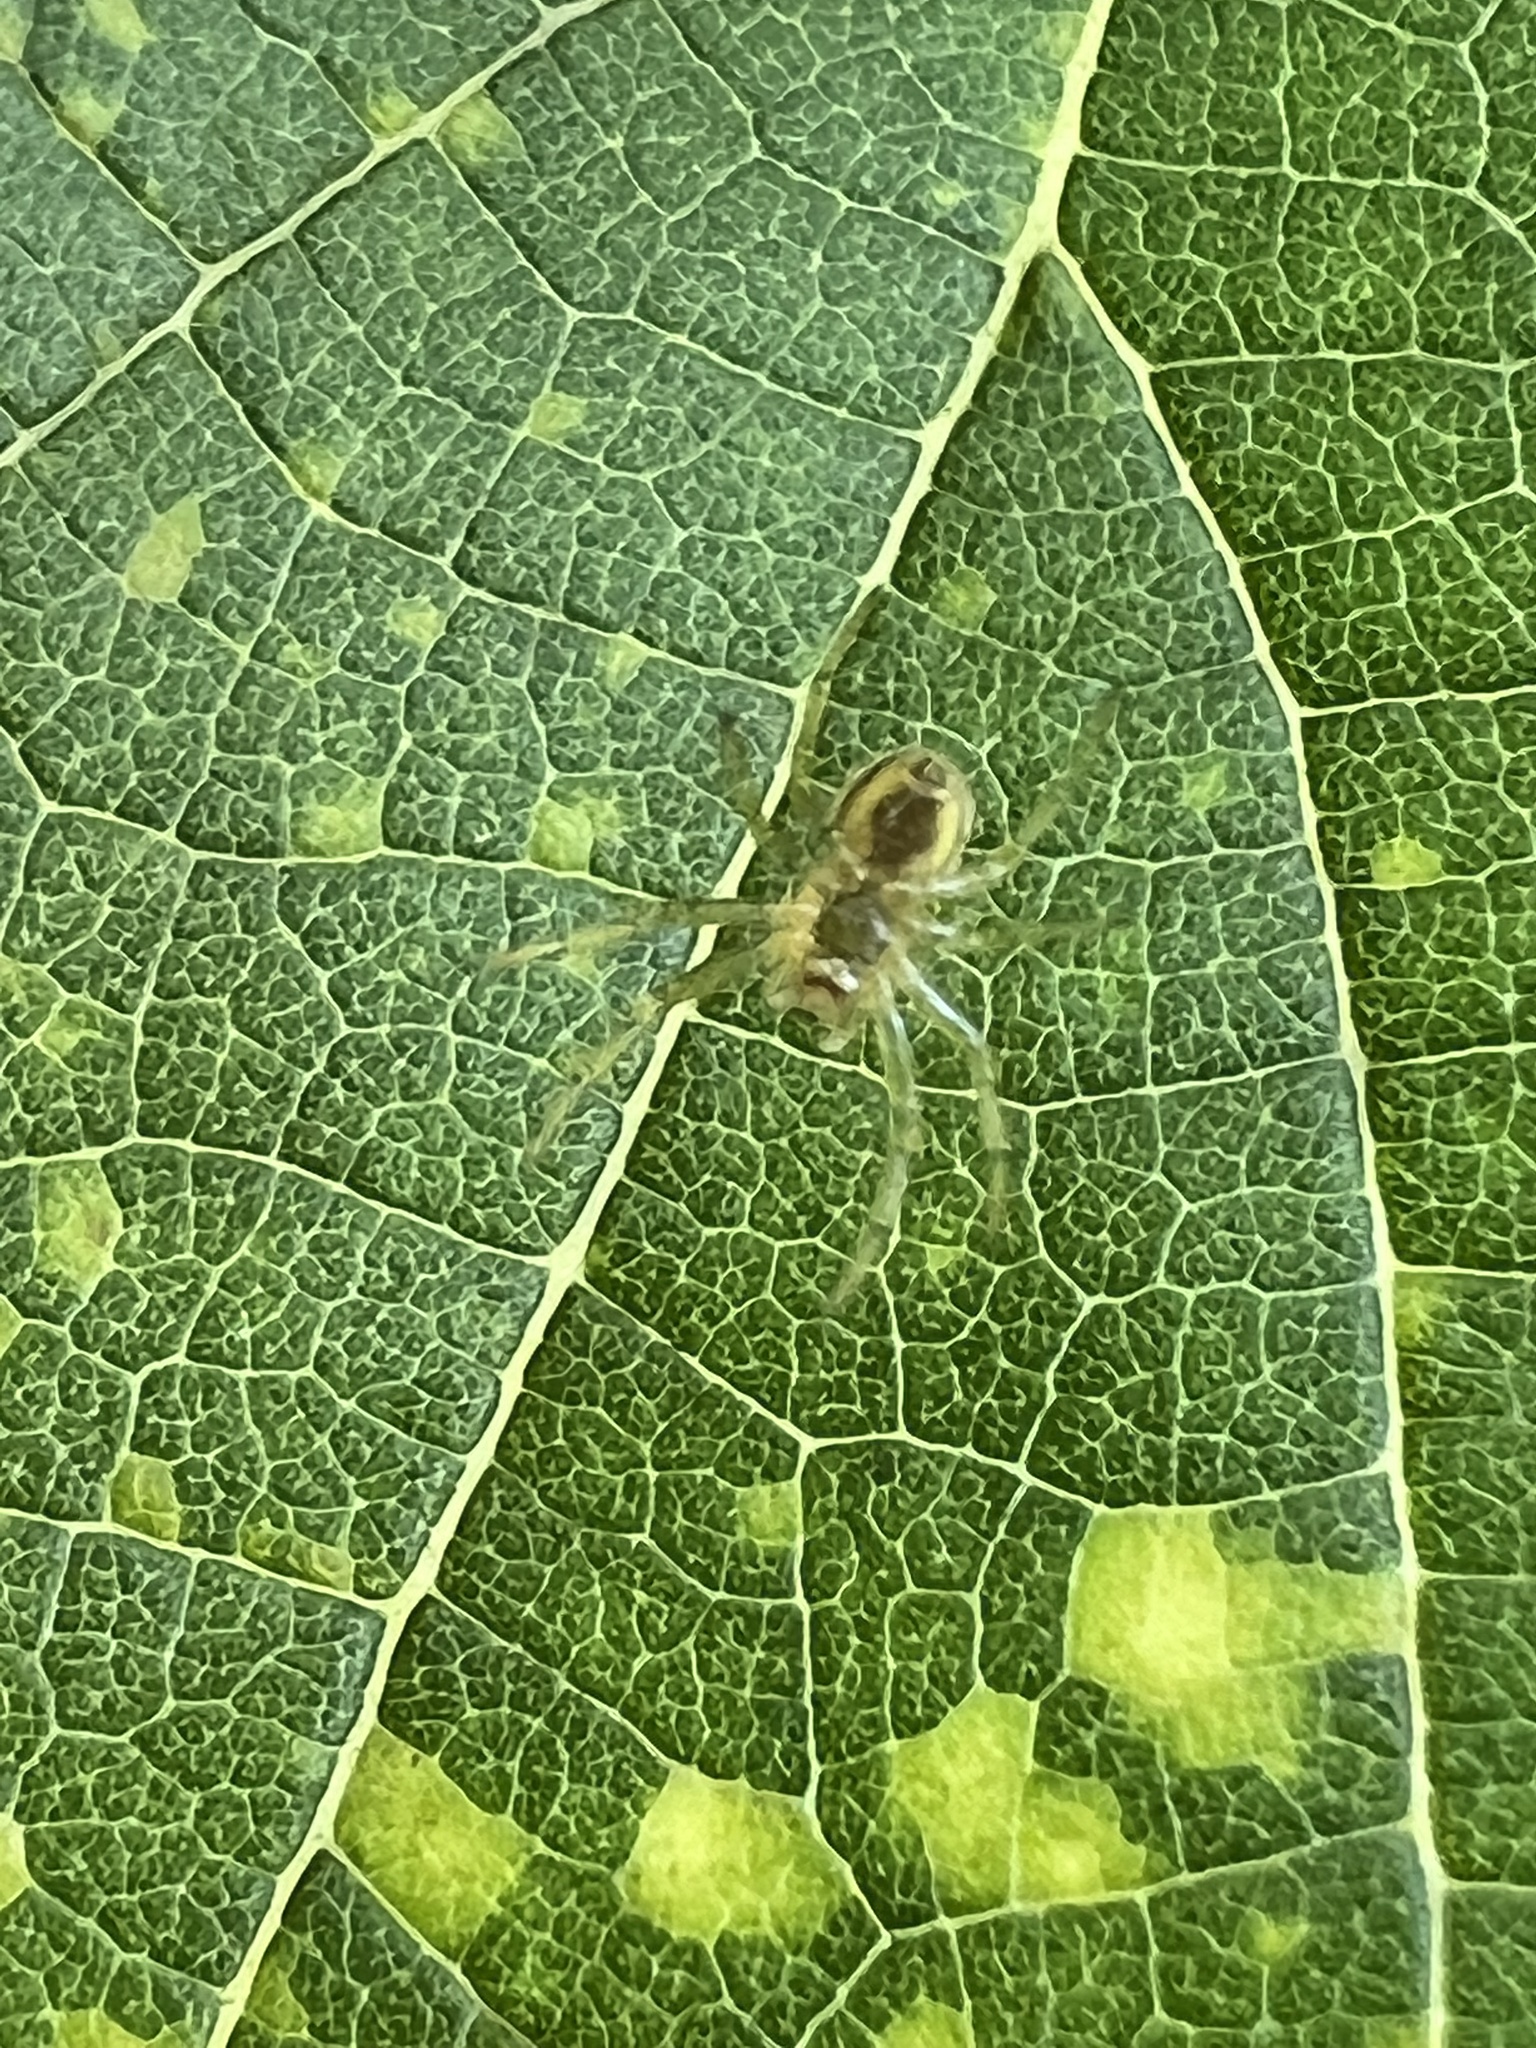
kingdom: Animalia
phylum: Arthropoda
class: Arachnida
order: Araneae
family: Araneidae
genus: Araniella
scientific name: Araniella displicata
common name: Sixspotted orb weaver
